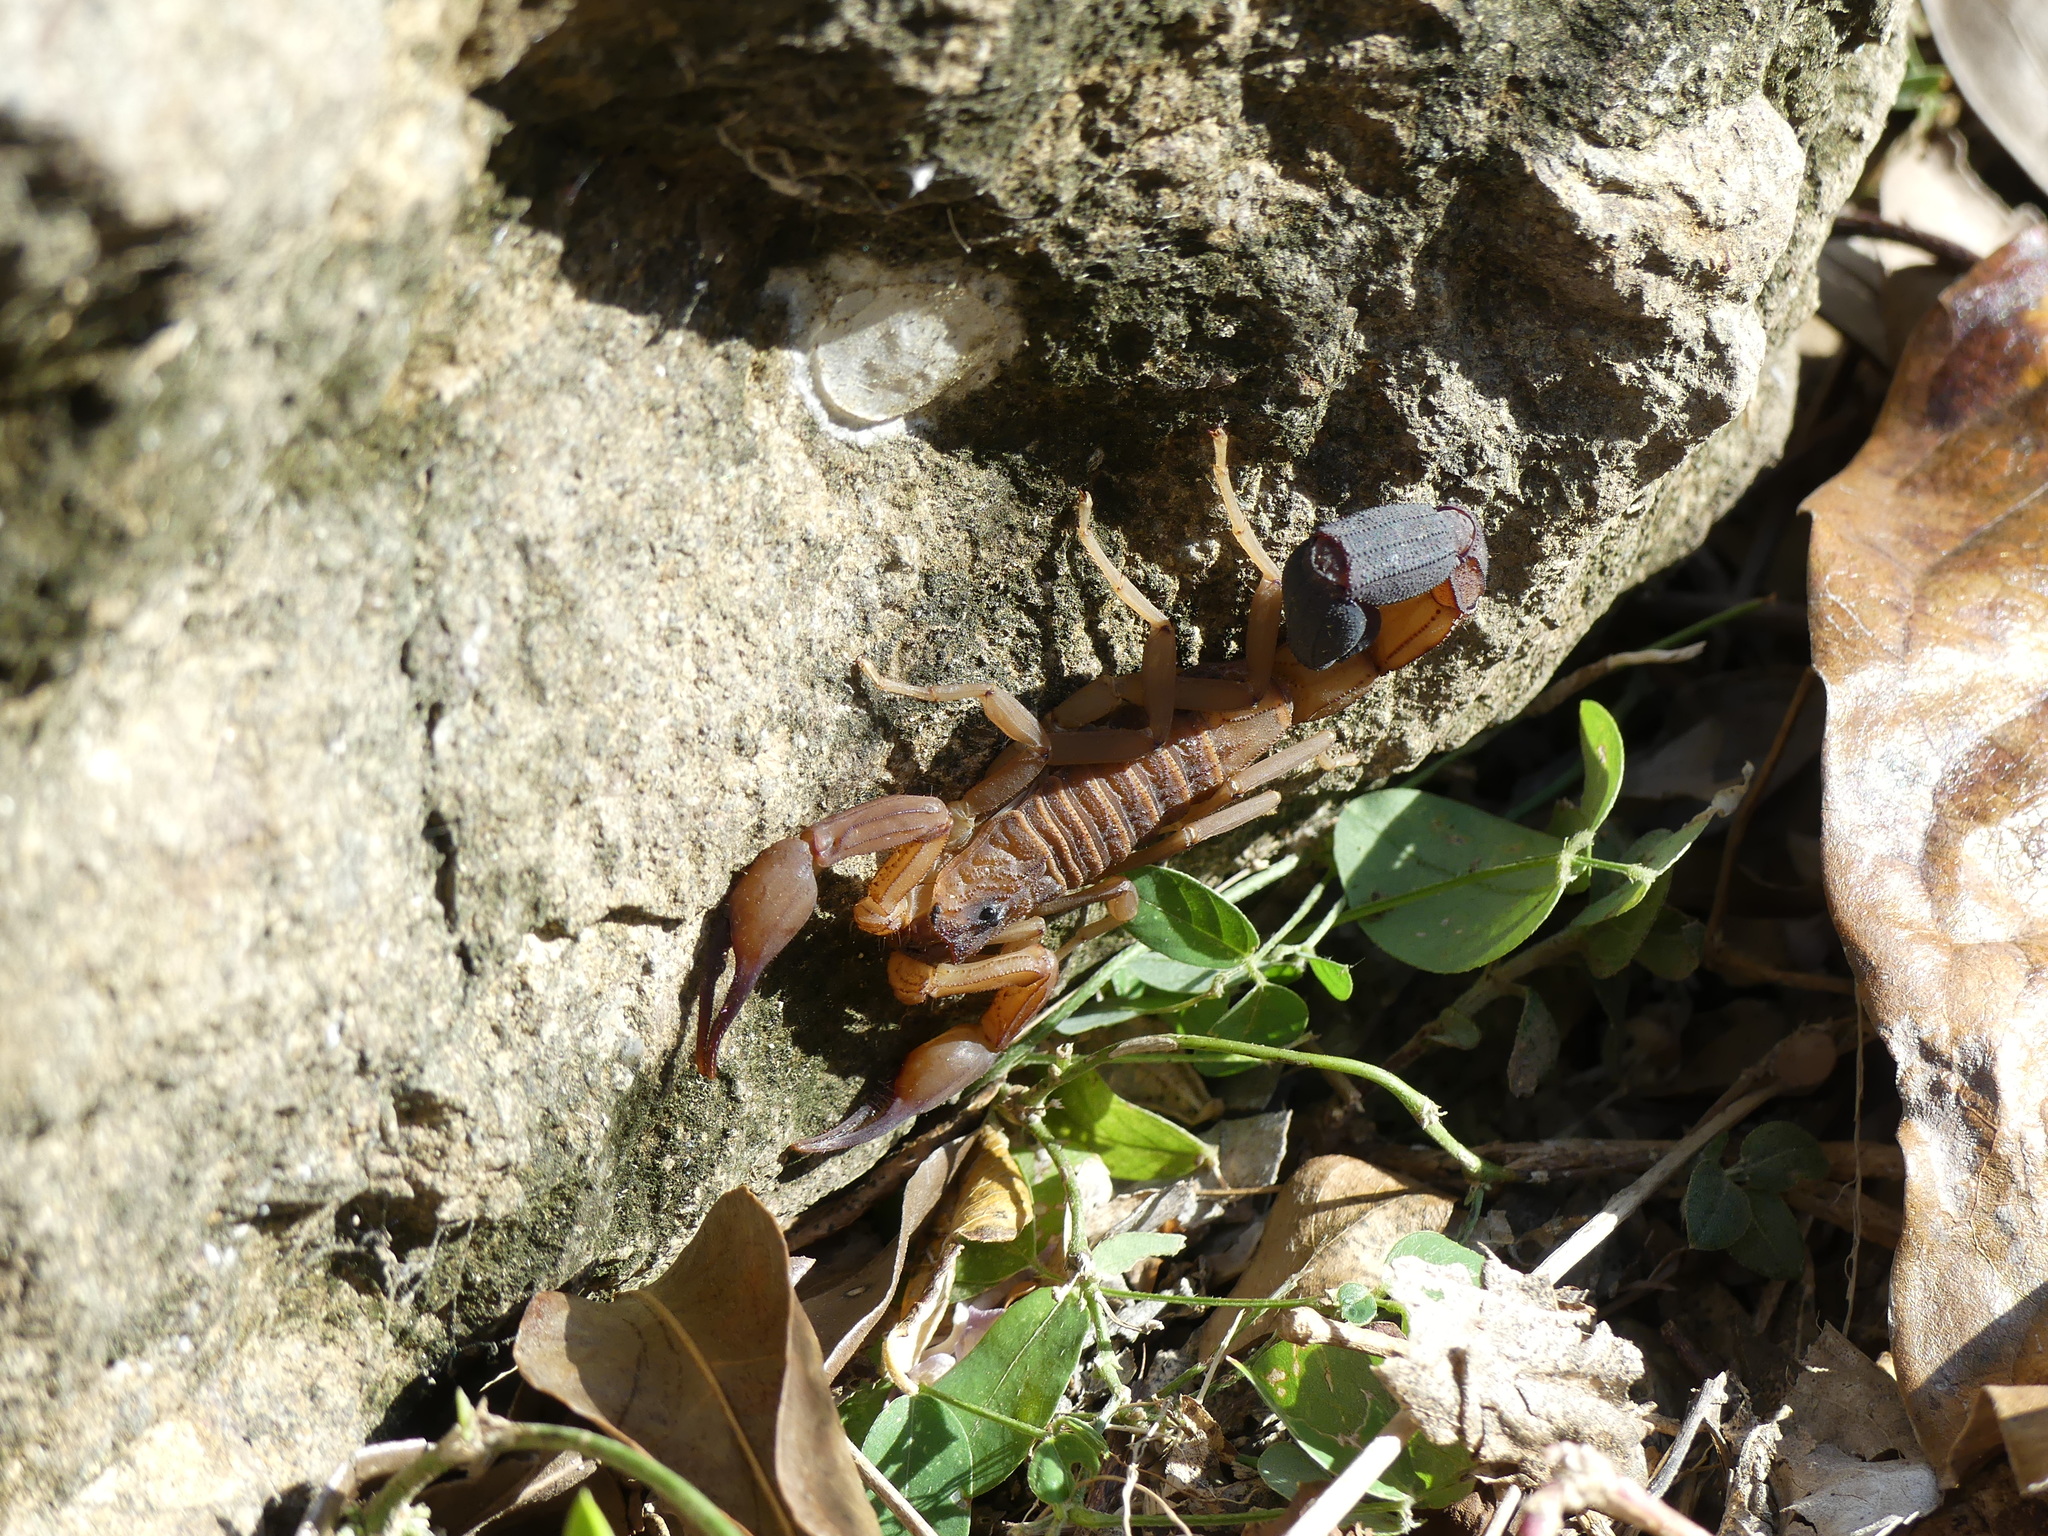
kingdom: Animalia
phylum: Arthropoda
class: Arachnida
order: Scorpiones
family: Buthidae
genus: Heteroctenus
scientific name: Heteroctenus junceus
